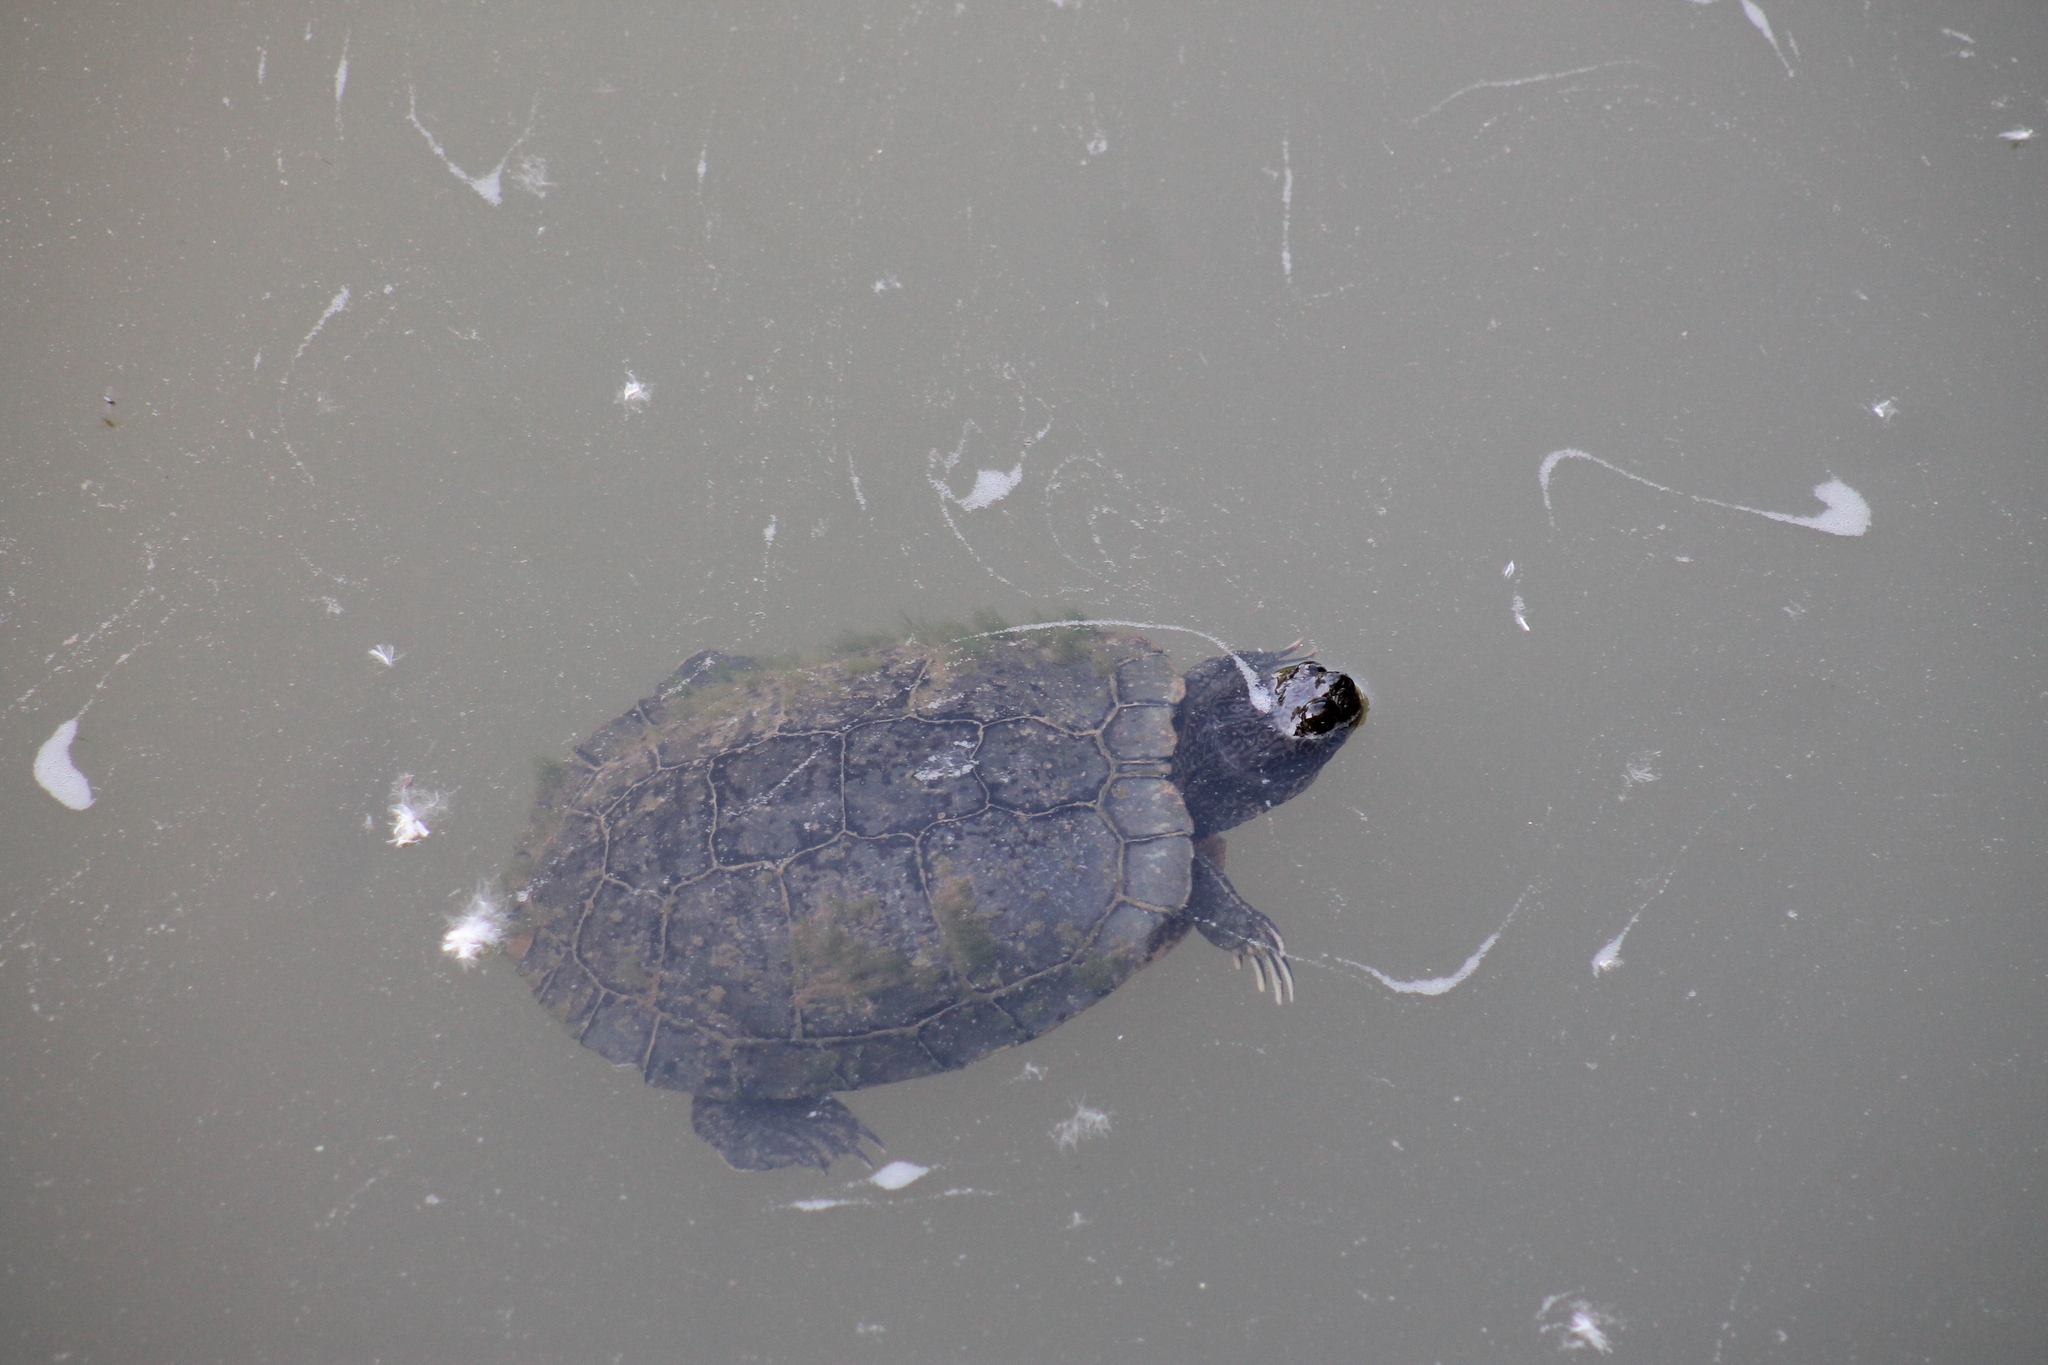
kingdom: Animalia
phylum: Chordata
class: Testudines
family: Emydidae
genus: Trachemys
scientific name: Trachemys scripta
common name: Slider
